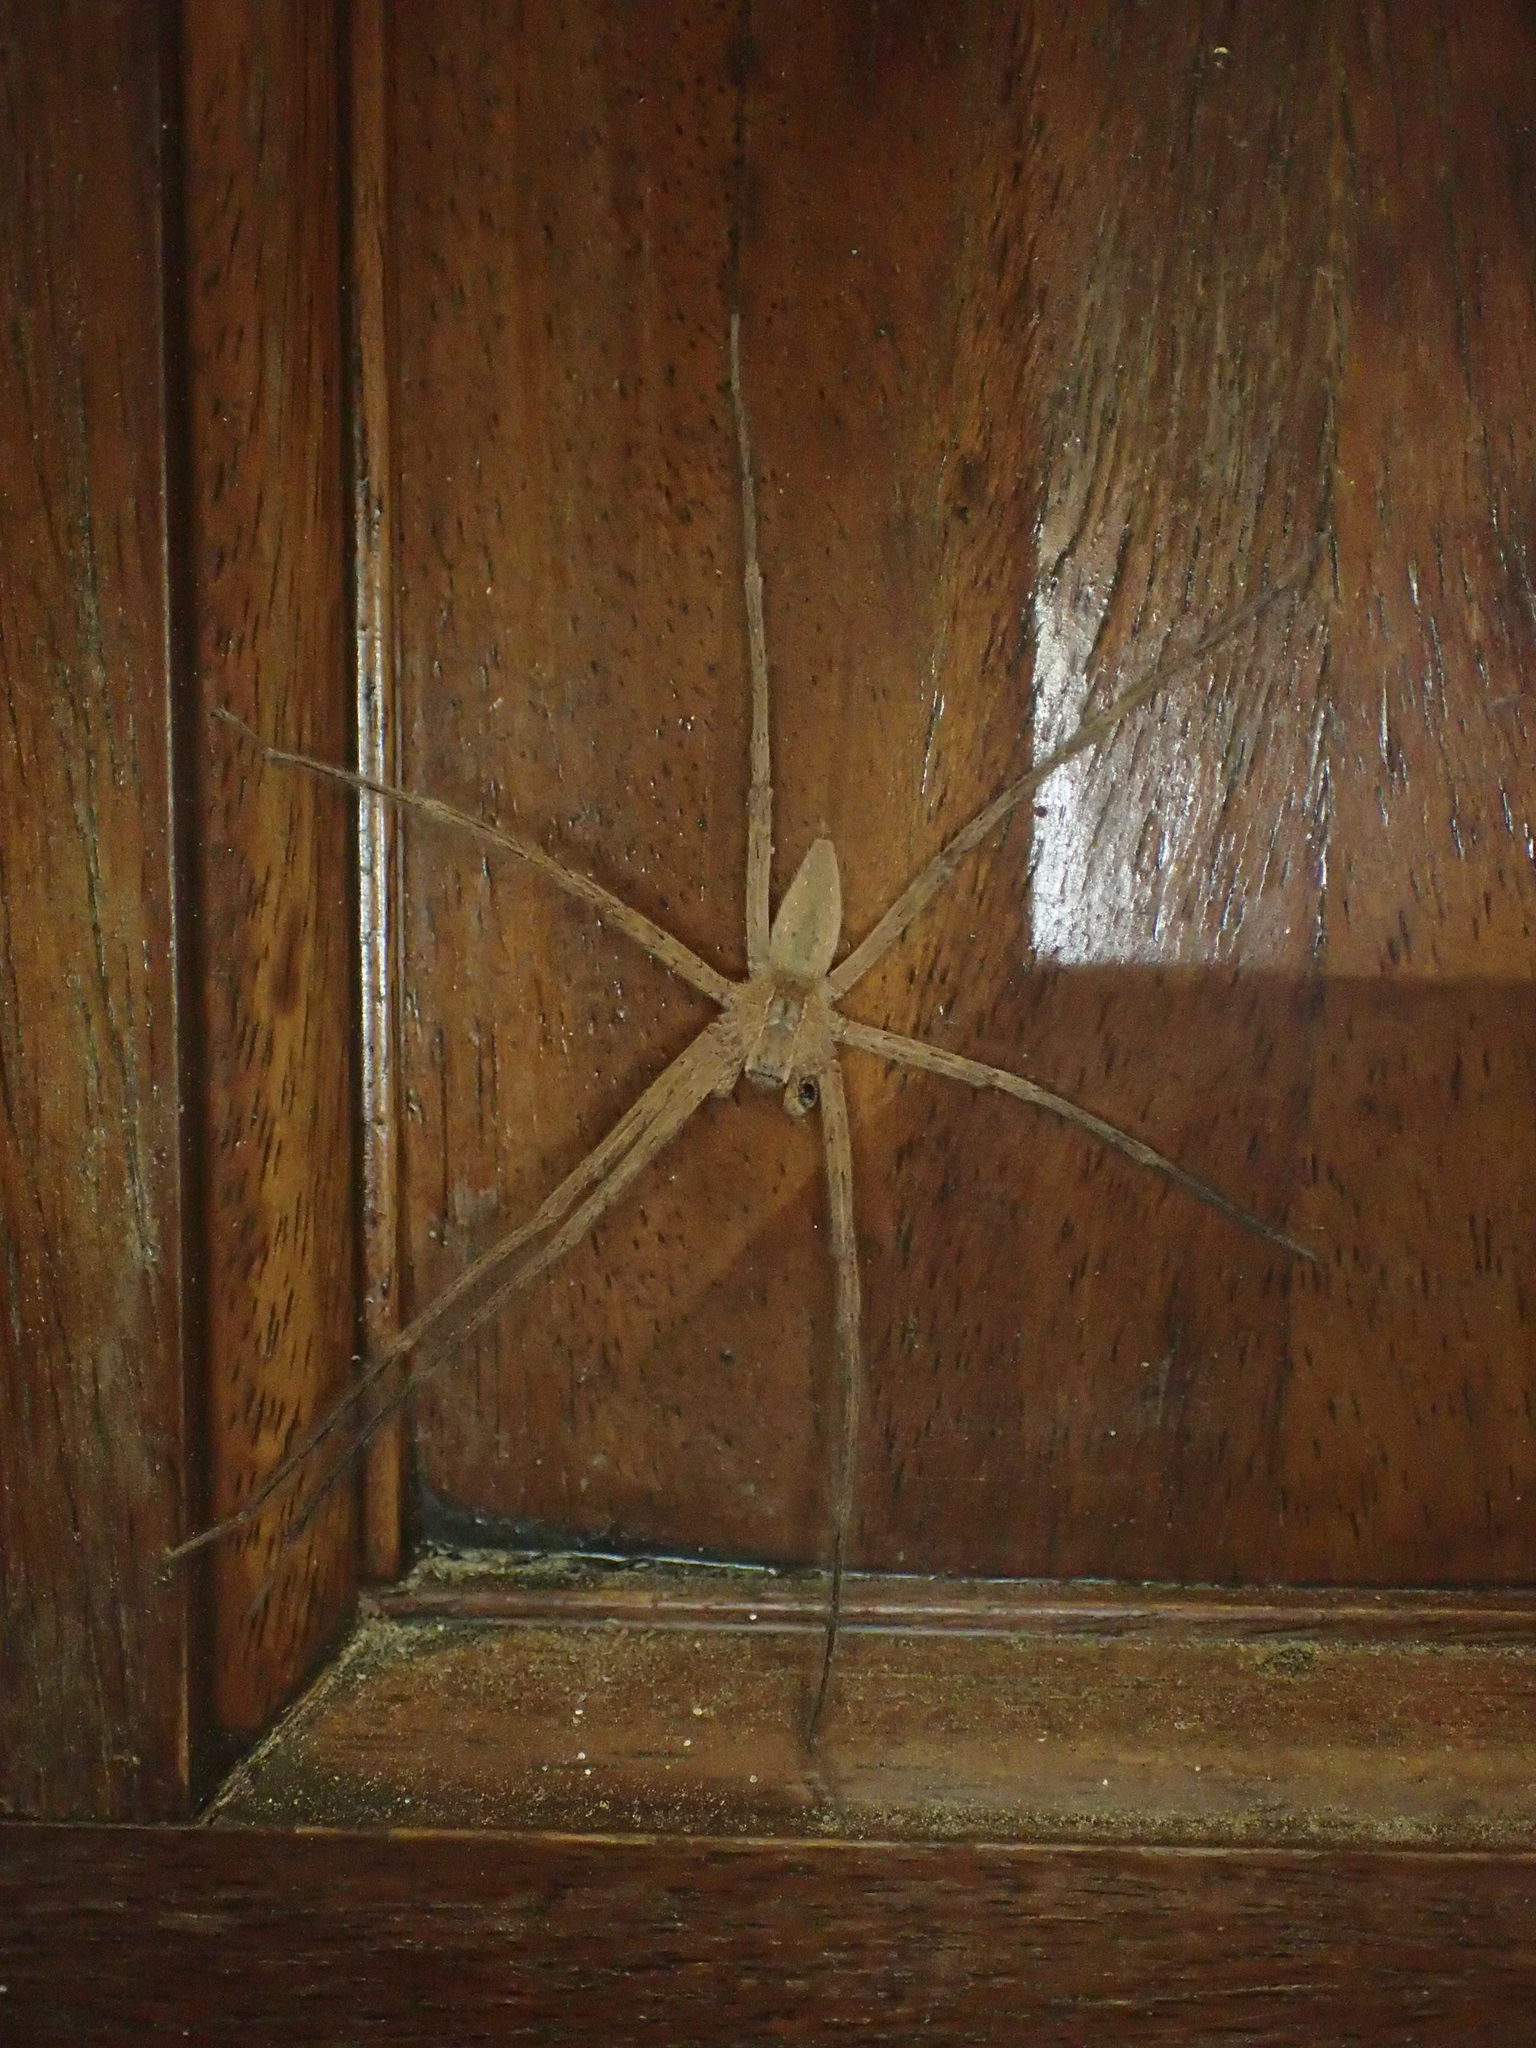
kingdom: Animalia
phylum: Arthropoda
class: Arachnida
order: Araneae
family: Pisauridae
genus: Pisaurina
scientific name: Pisaurina mira
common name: American nursery web spider
